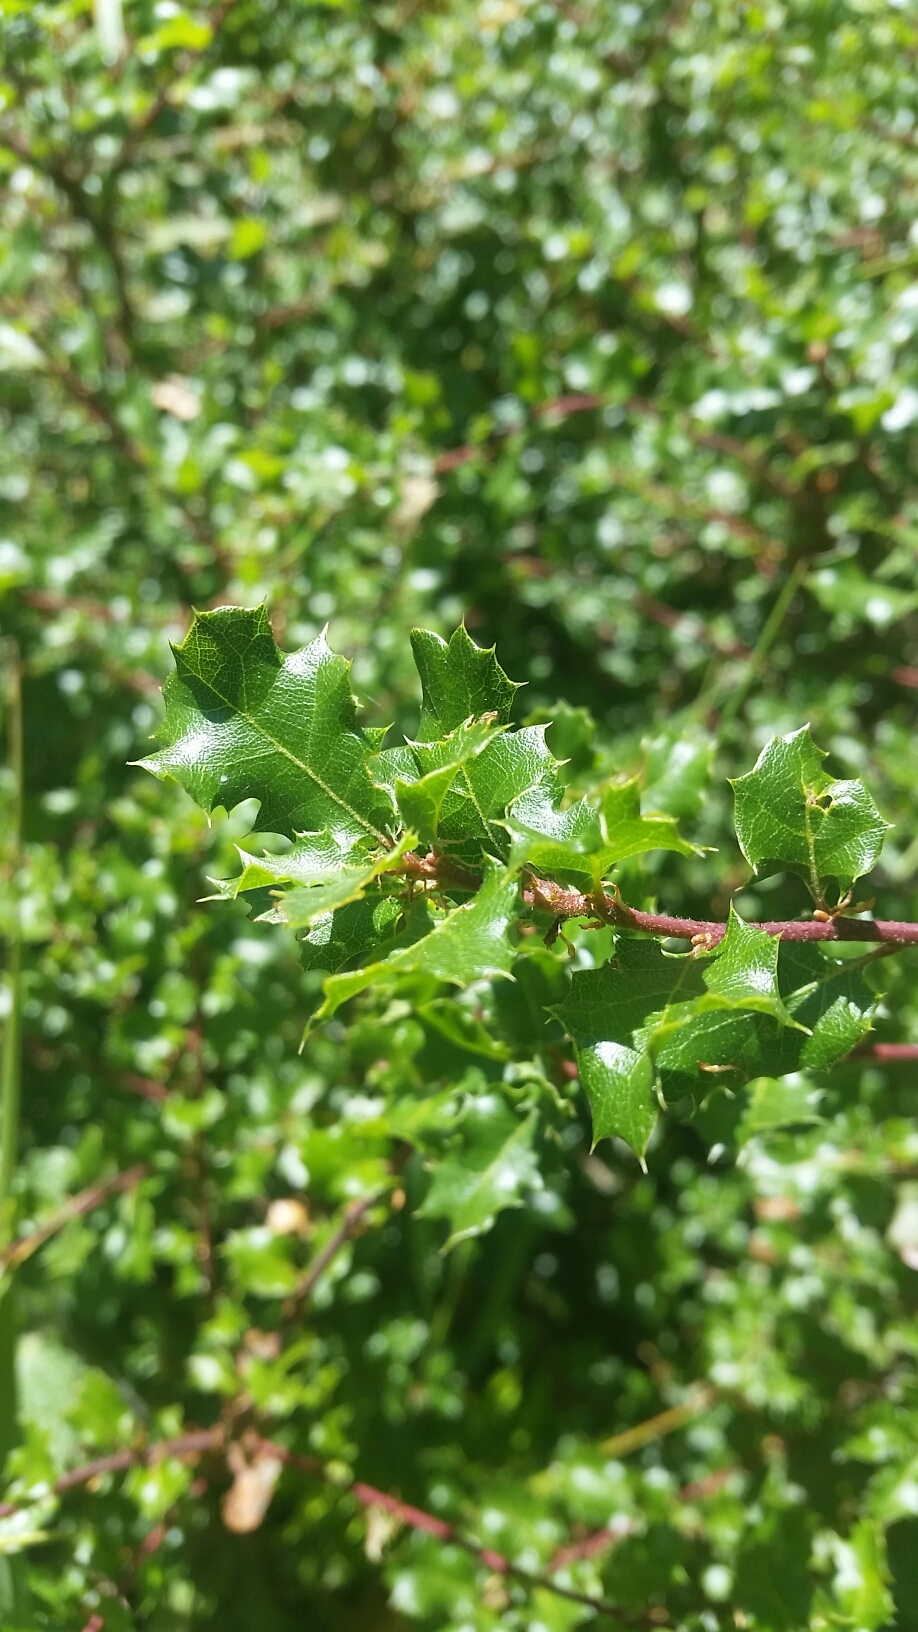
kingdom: Plantae
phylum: Tracheophyta
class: Magnoliopsida
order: Fagales
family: Fagaceae
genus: Quercus
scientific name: Quercus berberidifolia
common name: California scrub oak
